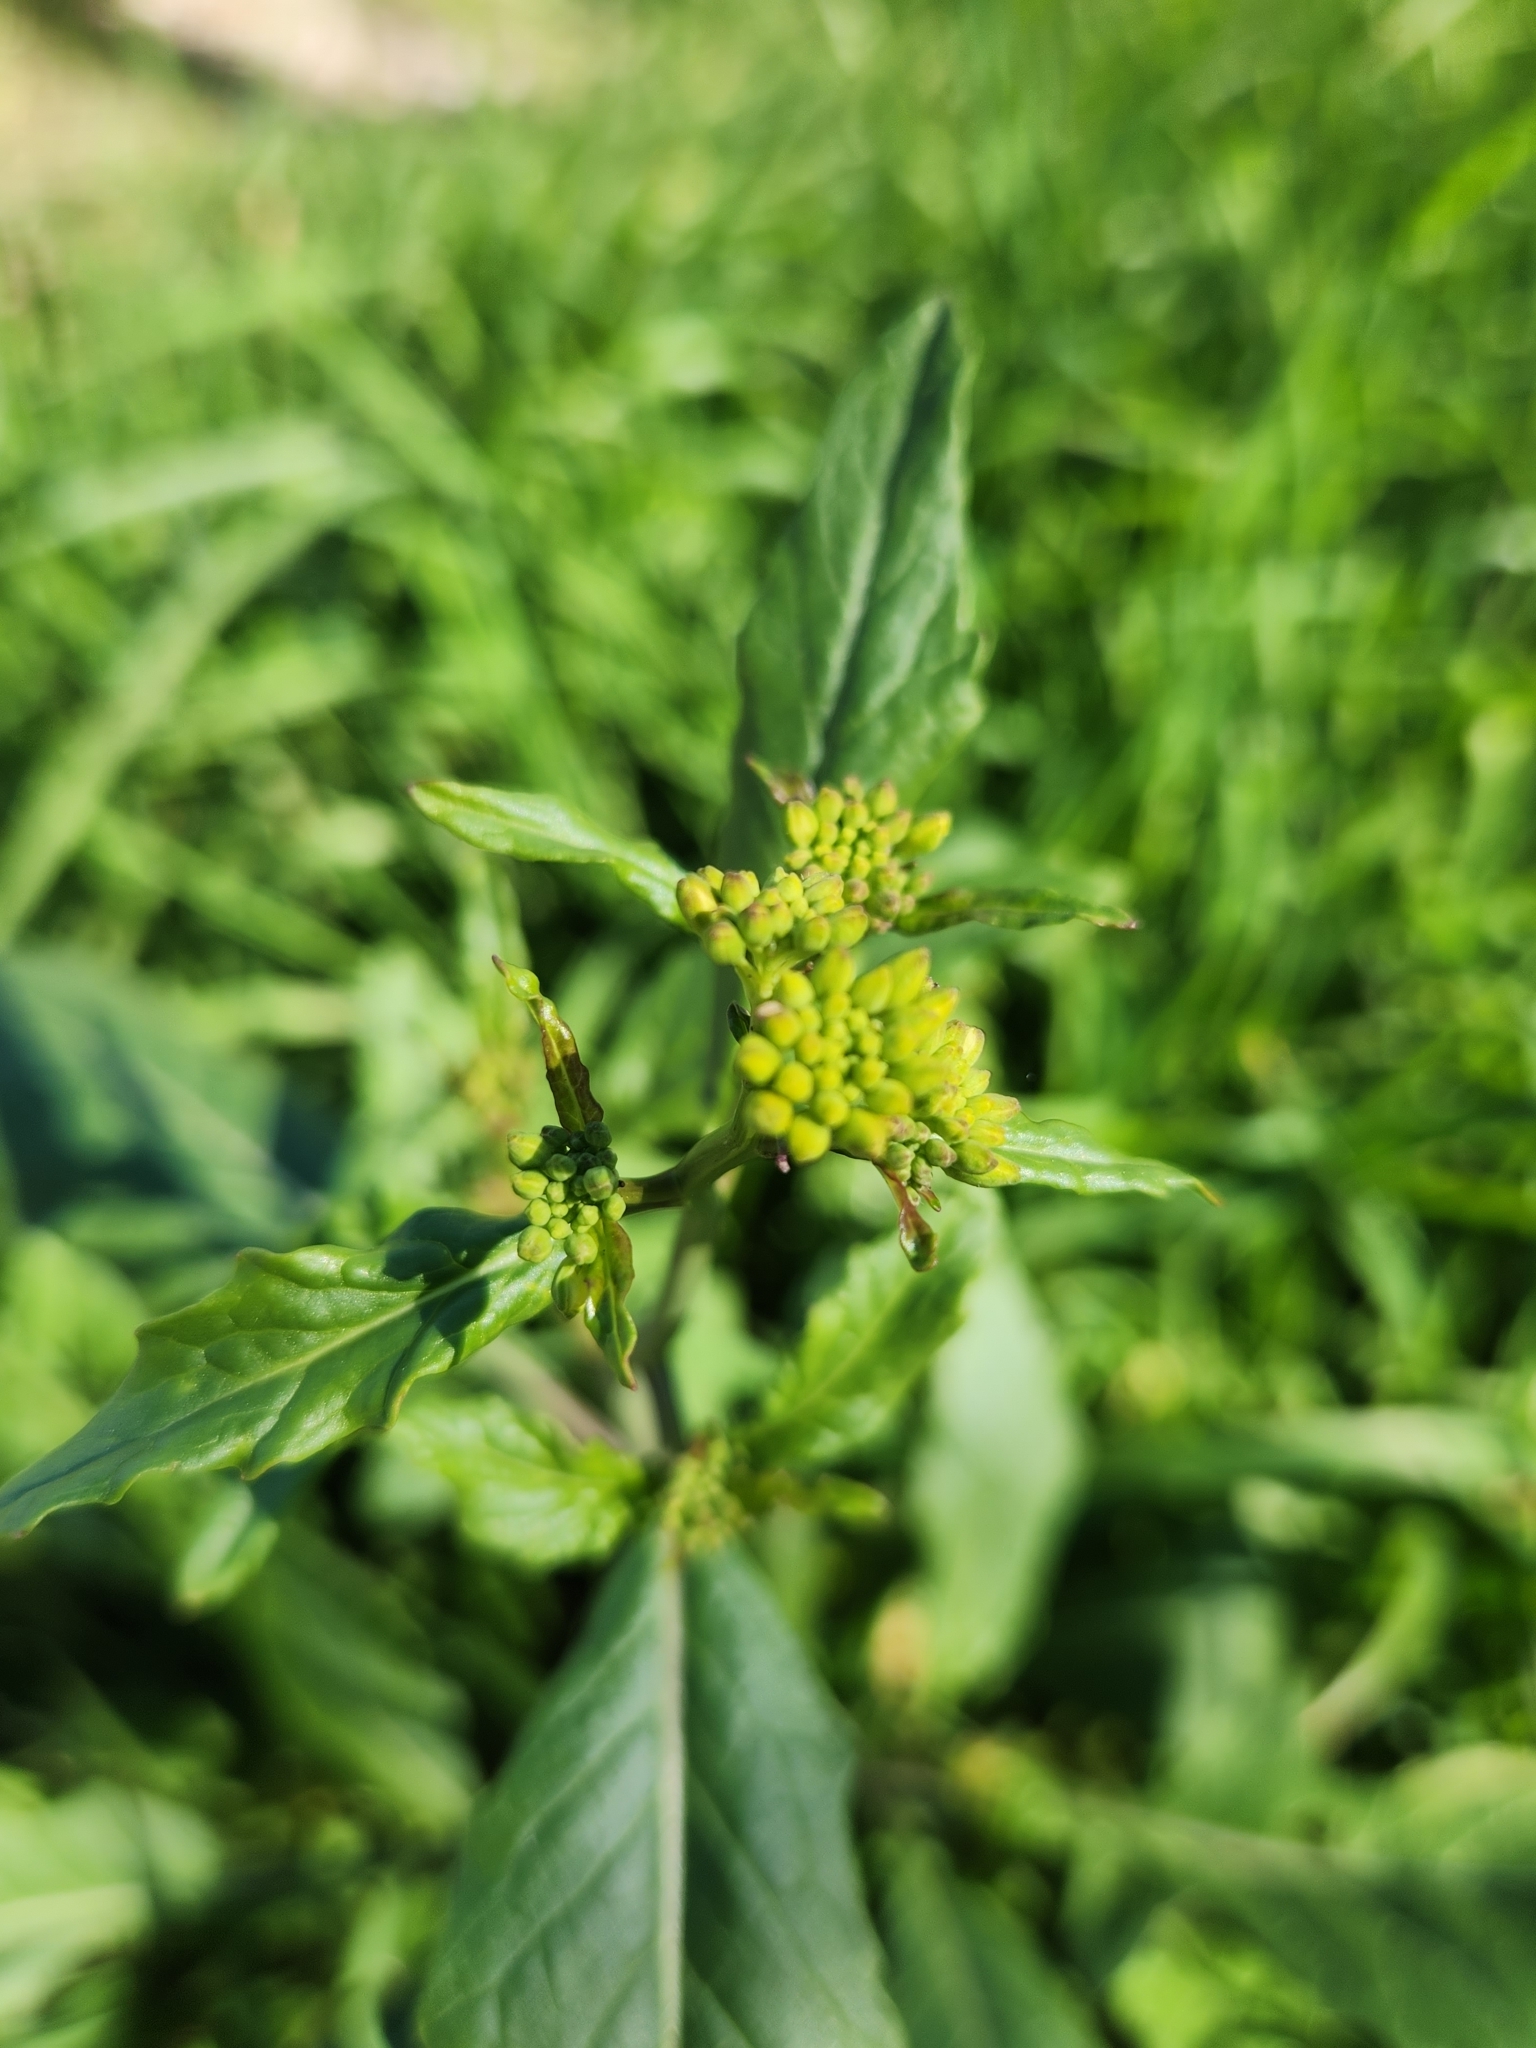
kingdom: Plantae
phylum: Tracheophyta
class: Magnoliopsida
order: Brassicales
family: Brassicaceae
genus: Rapistrum
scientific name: Rapistrum rugosum
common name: Annual bastardcabbage
